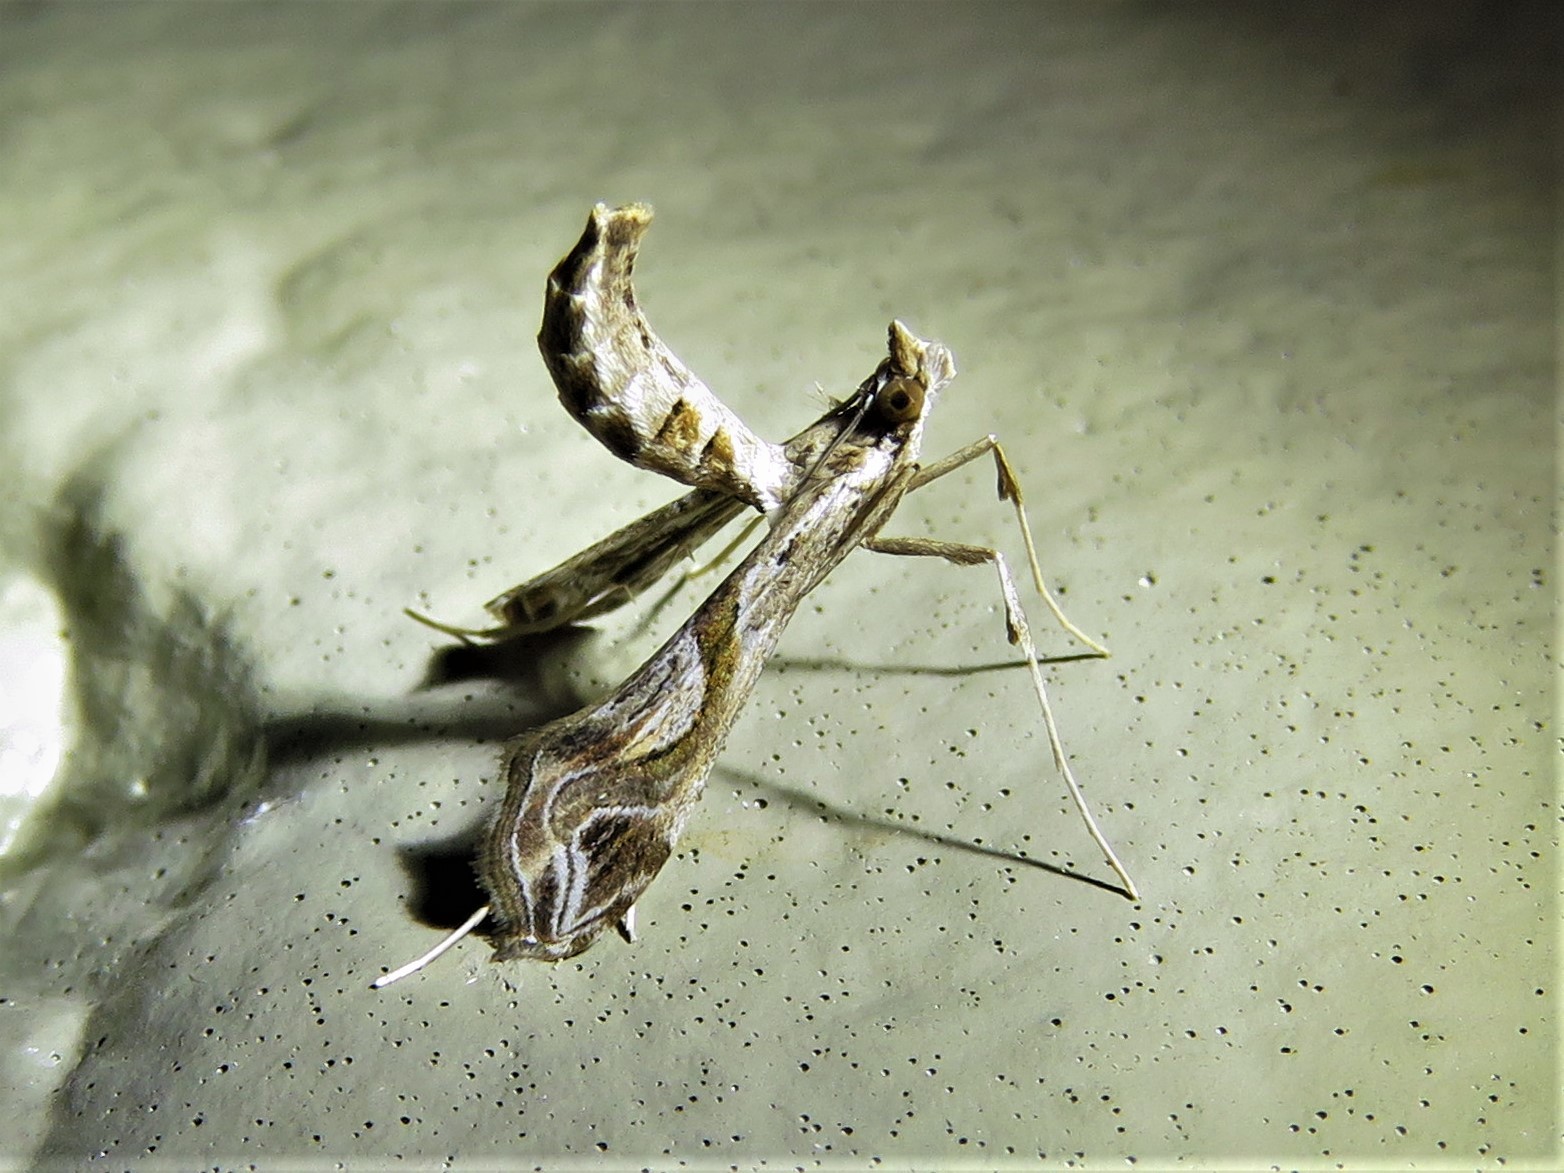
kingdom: Animalia
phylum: Arthropoda
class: Insecta
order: Lepidoptera
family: Crambidae
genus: Lineodes
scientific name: Lineodes integra
